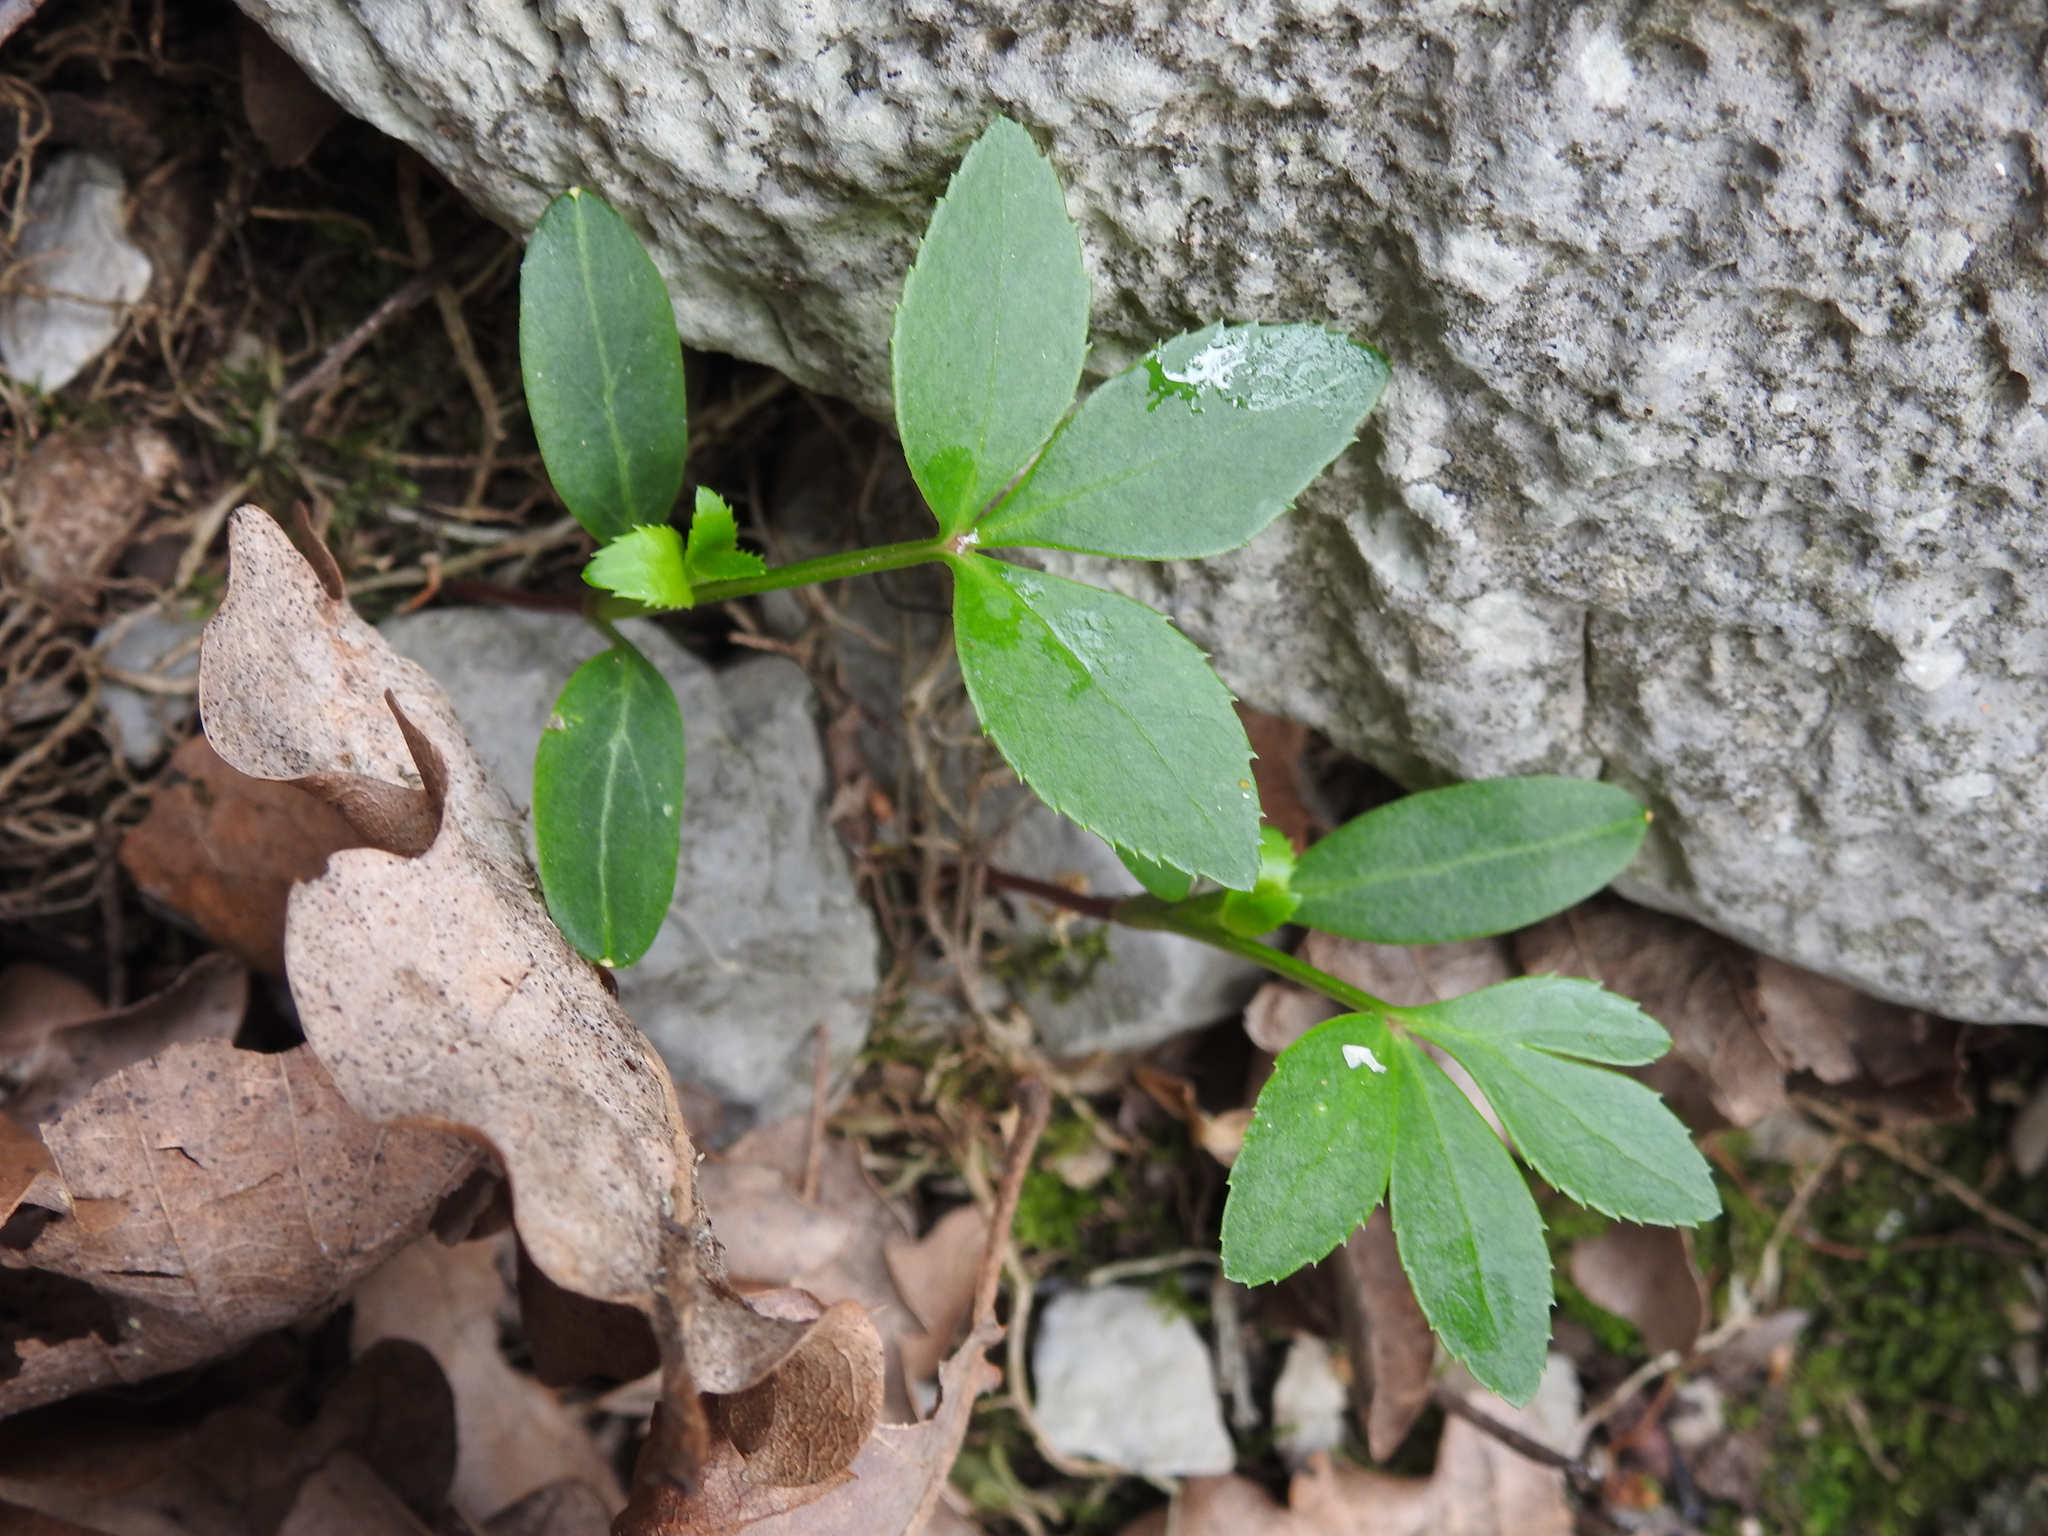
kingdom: Plantae
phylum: Tracheophyta
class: Magnoliopsida
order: Ranunculales
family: Ranunculaceae
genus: Helleborus
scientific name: Helleborus foetidus
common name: Stinking hellebore
